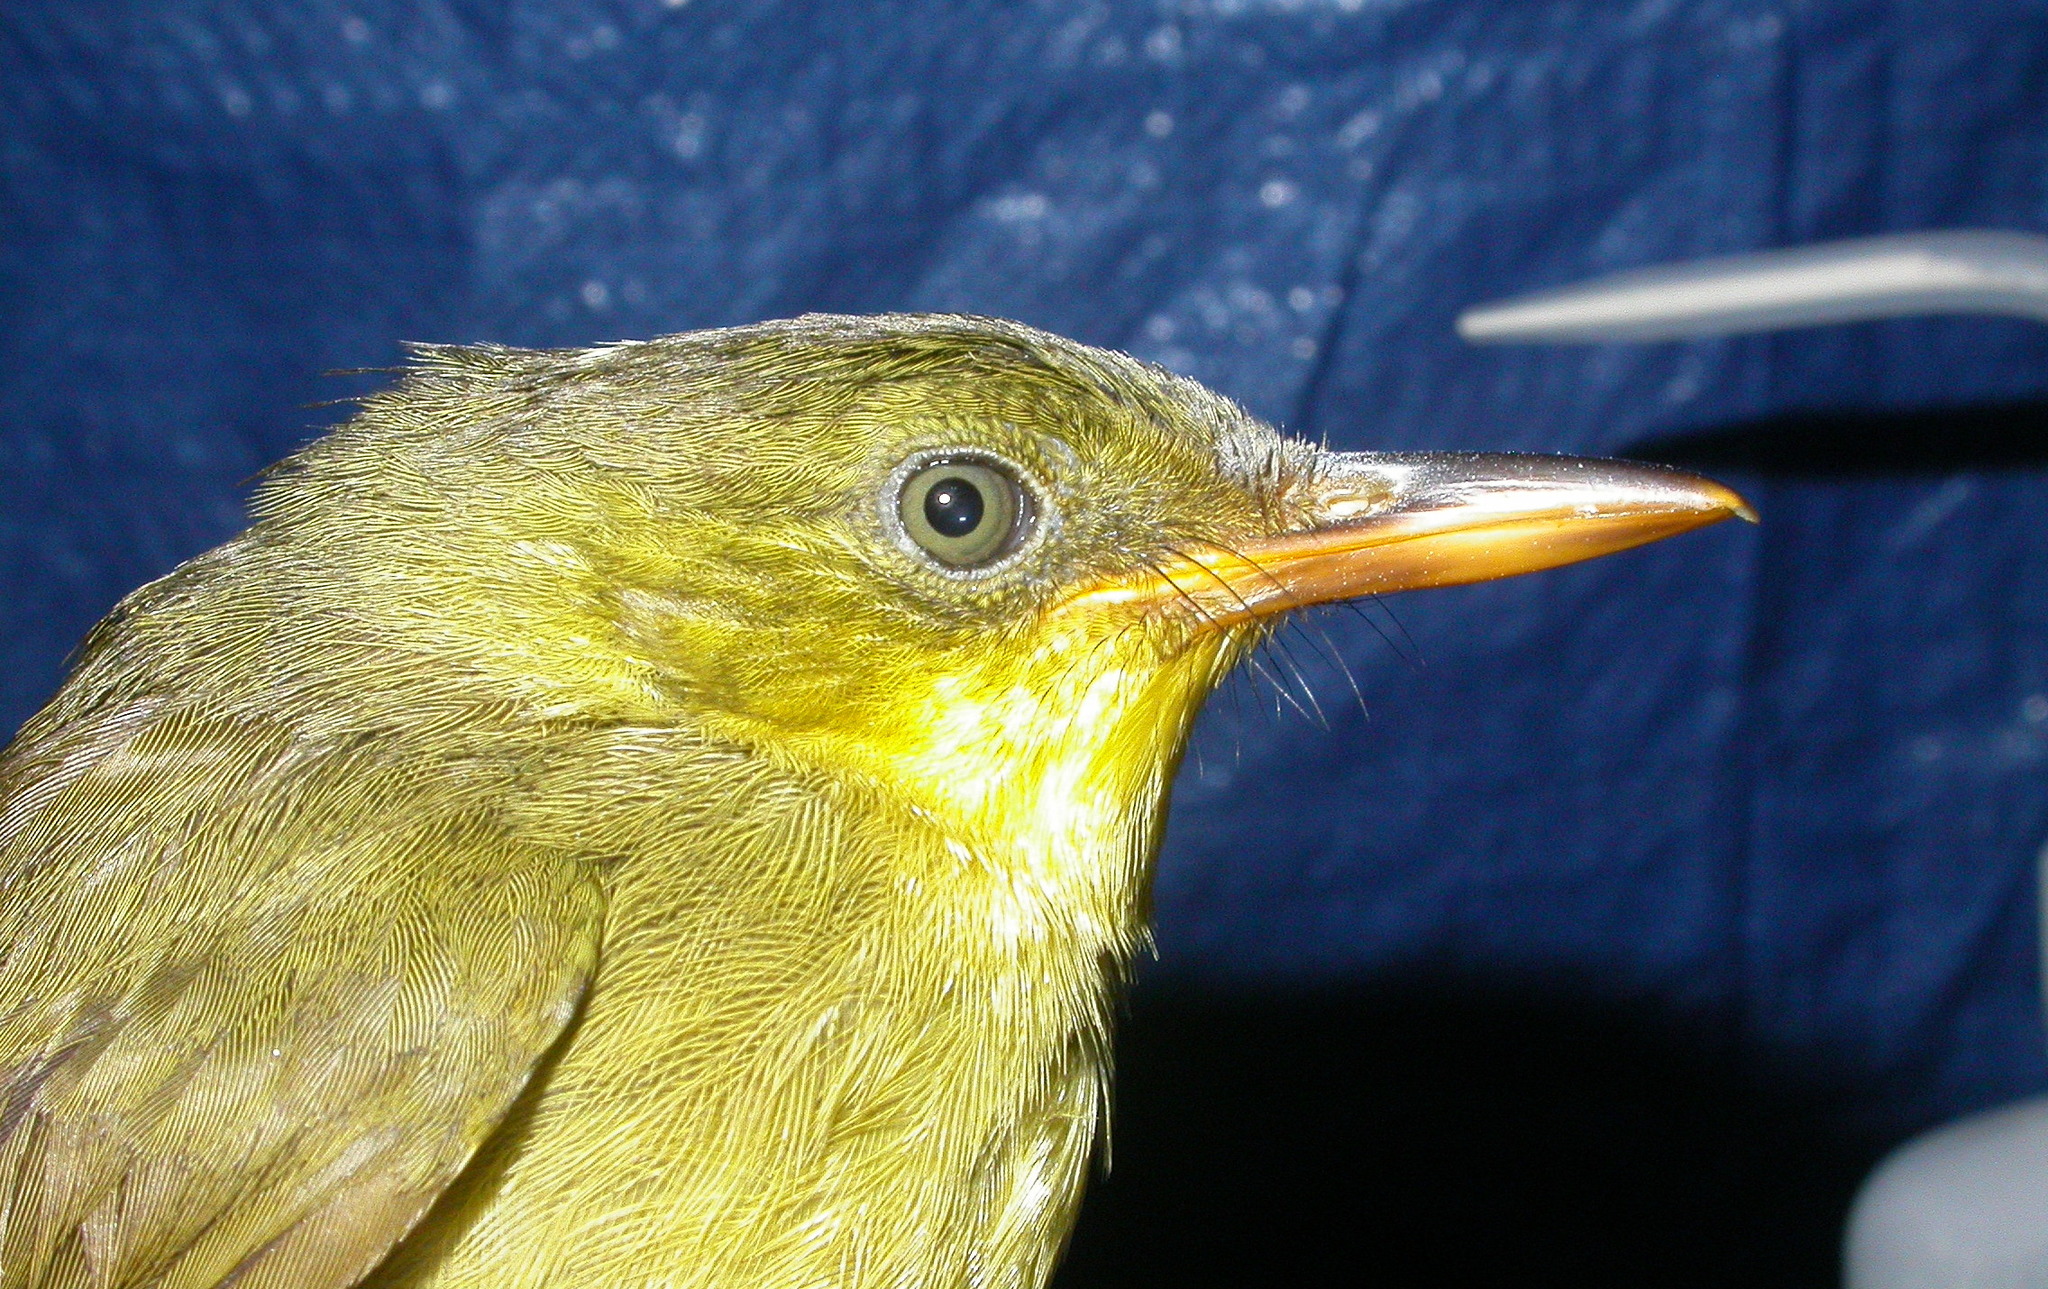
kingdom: Animalia
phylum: Chordata
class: Aves
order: Passeriformes
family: Bernieridae
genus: Bernieria
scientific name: Bernieria madagascariensis
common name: Long-billed bernieria
